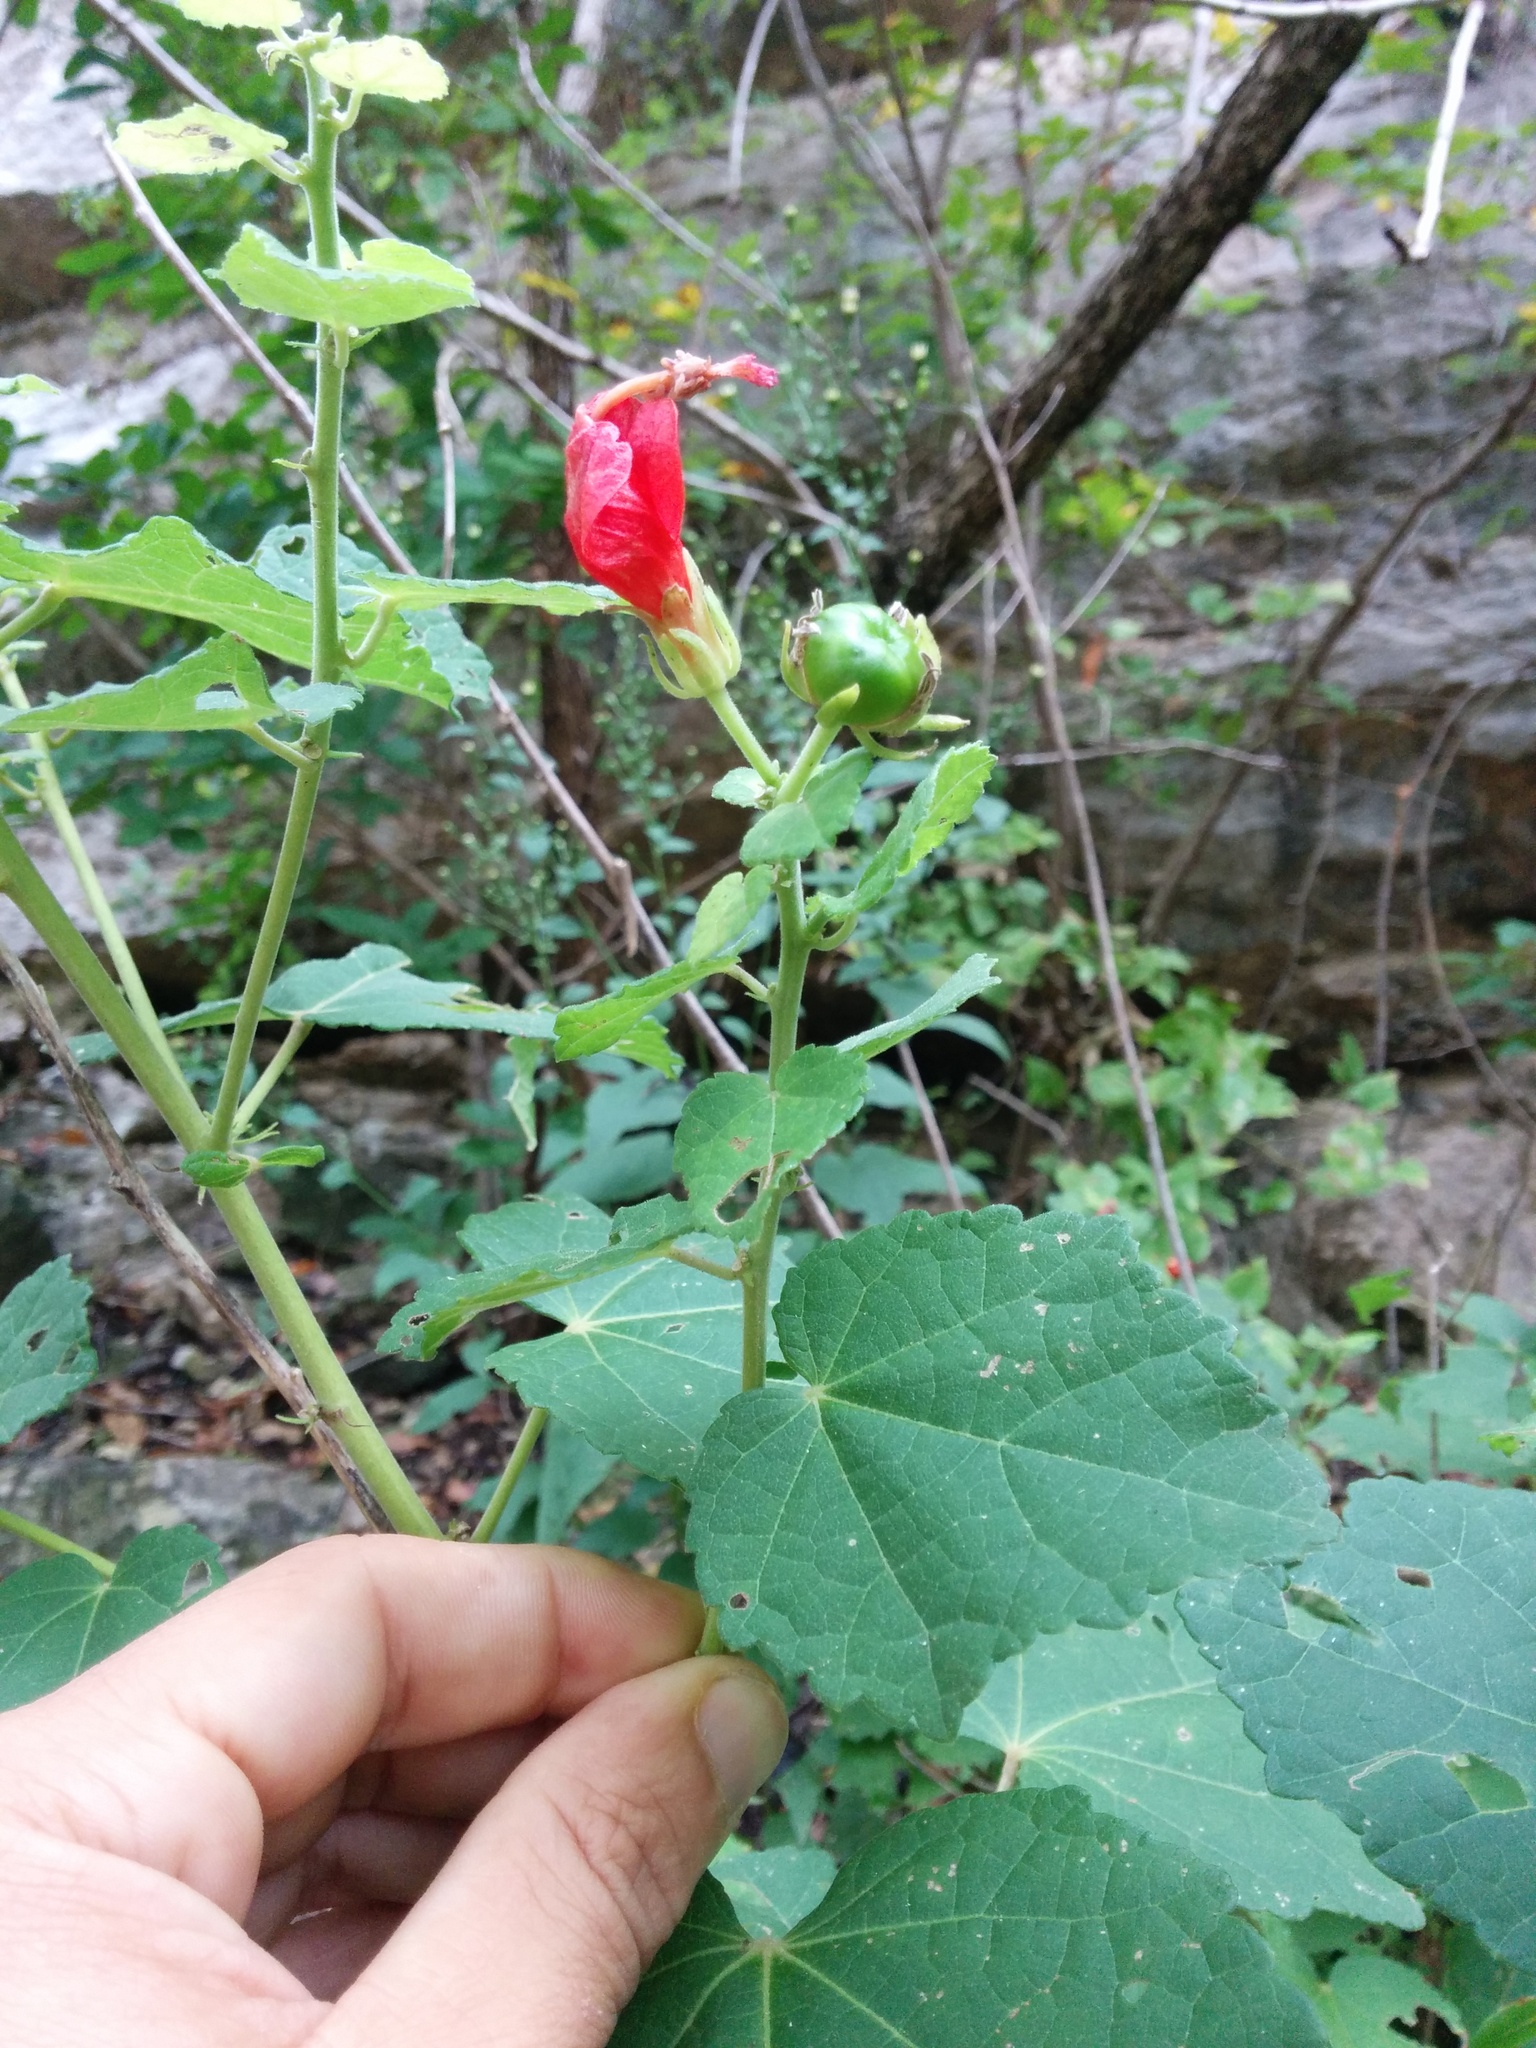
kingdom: Plantae
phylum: Tracheophyta
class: Magnoliopsida
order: Malvales
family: Malvaceae
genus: Malvaviscus
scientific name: Malvaviscus arboreus
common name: Wax mallow
